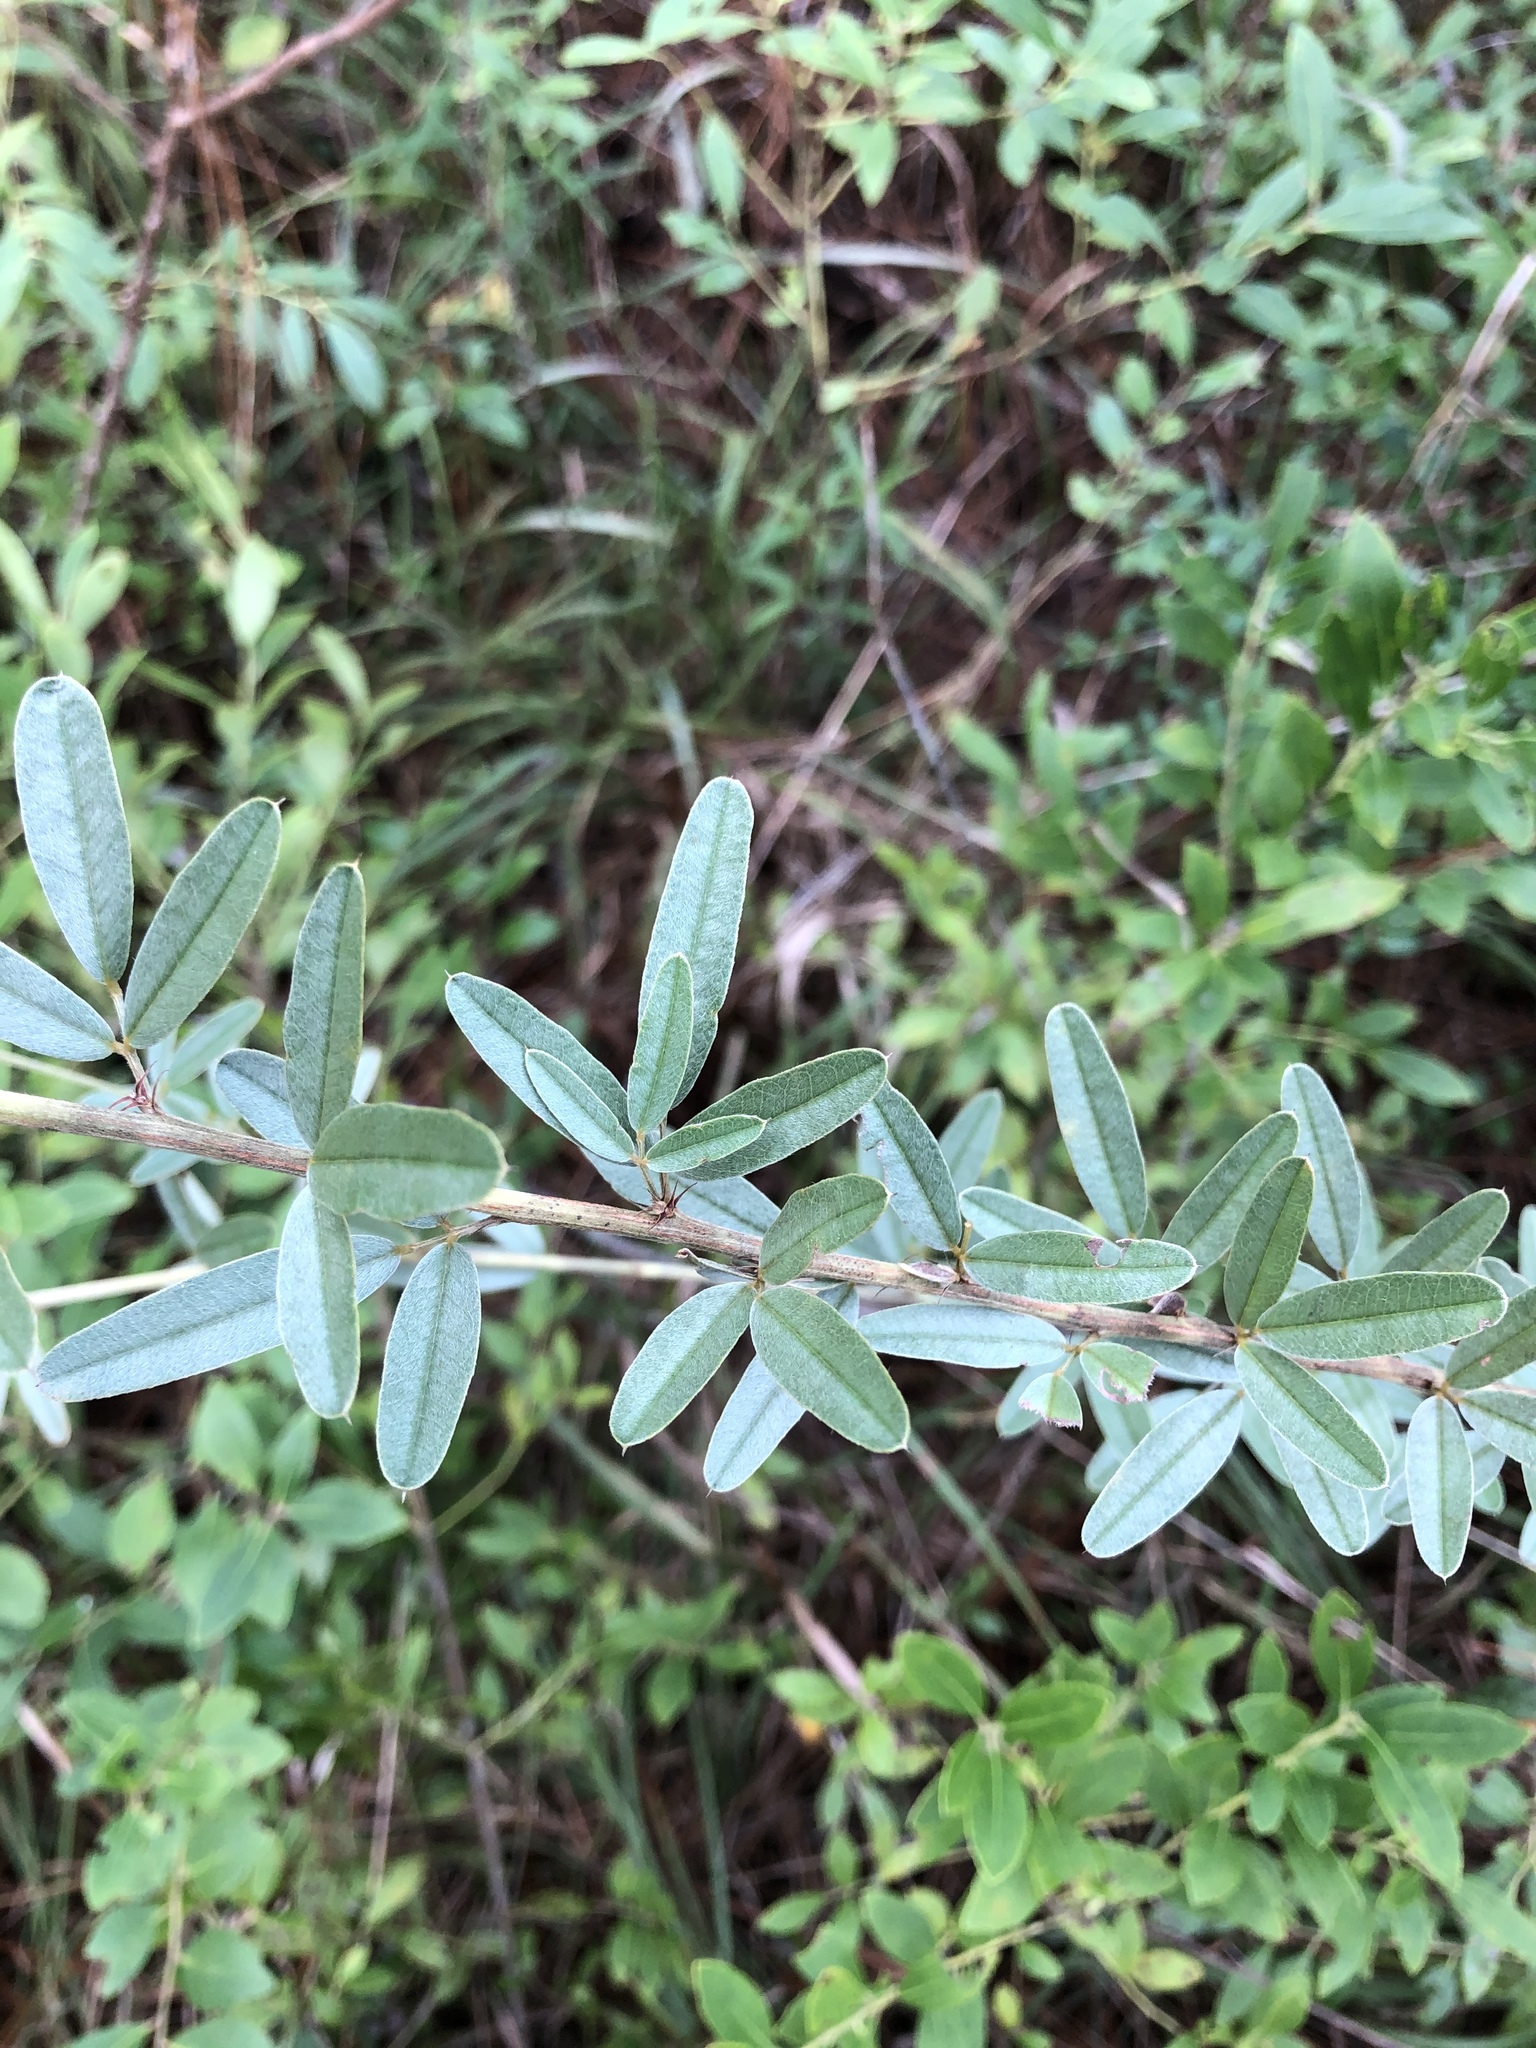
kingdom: Plantae
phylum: Tracheophyta
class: Magnoliopsida
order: Fabales
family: Fabaceae
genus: Lespedeza
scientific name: Lespedeza capitata
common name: Dusty clover
